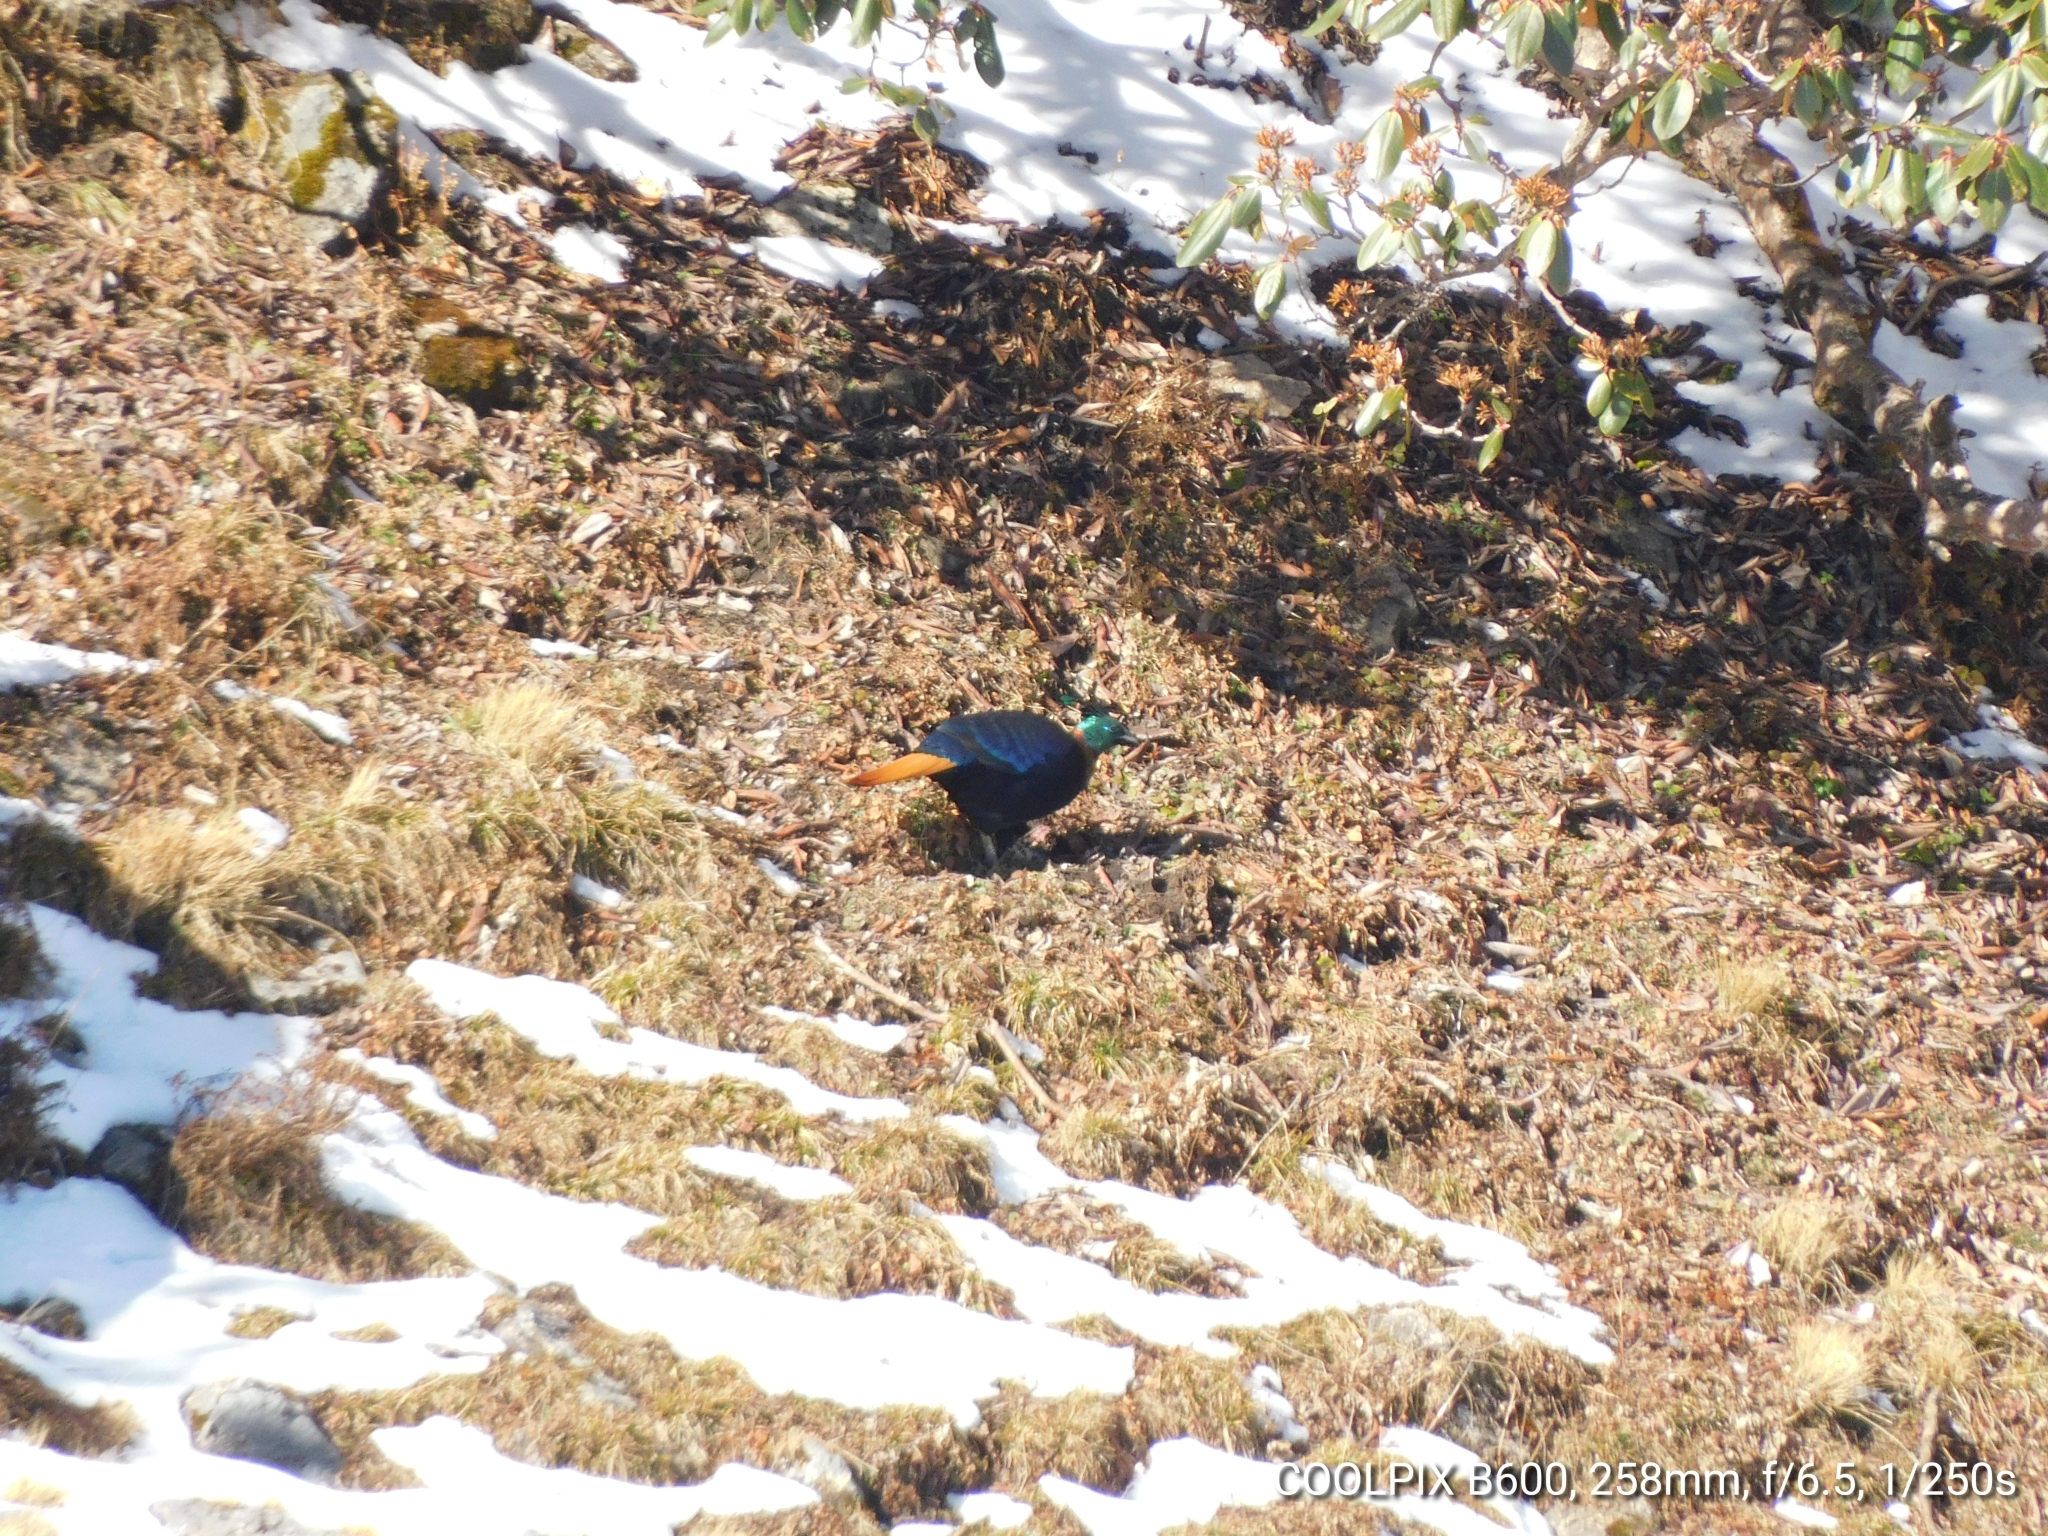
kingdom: Animalia
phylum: Chordata
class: Aves
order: Galliformes
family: Phasianidae
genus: Lophophorus
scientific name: Lophophorus impejanus
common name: Himalayan monal
